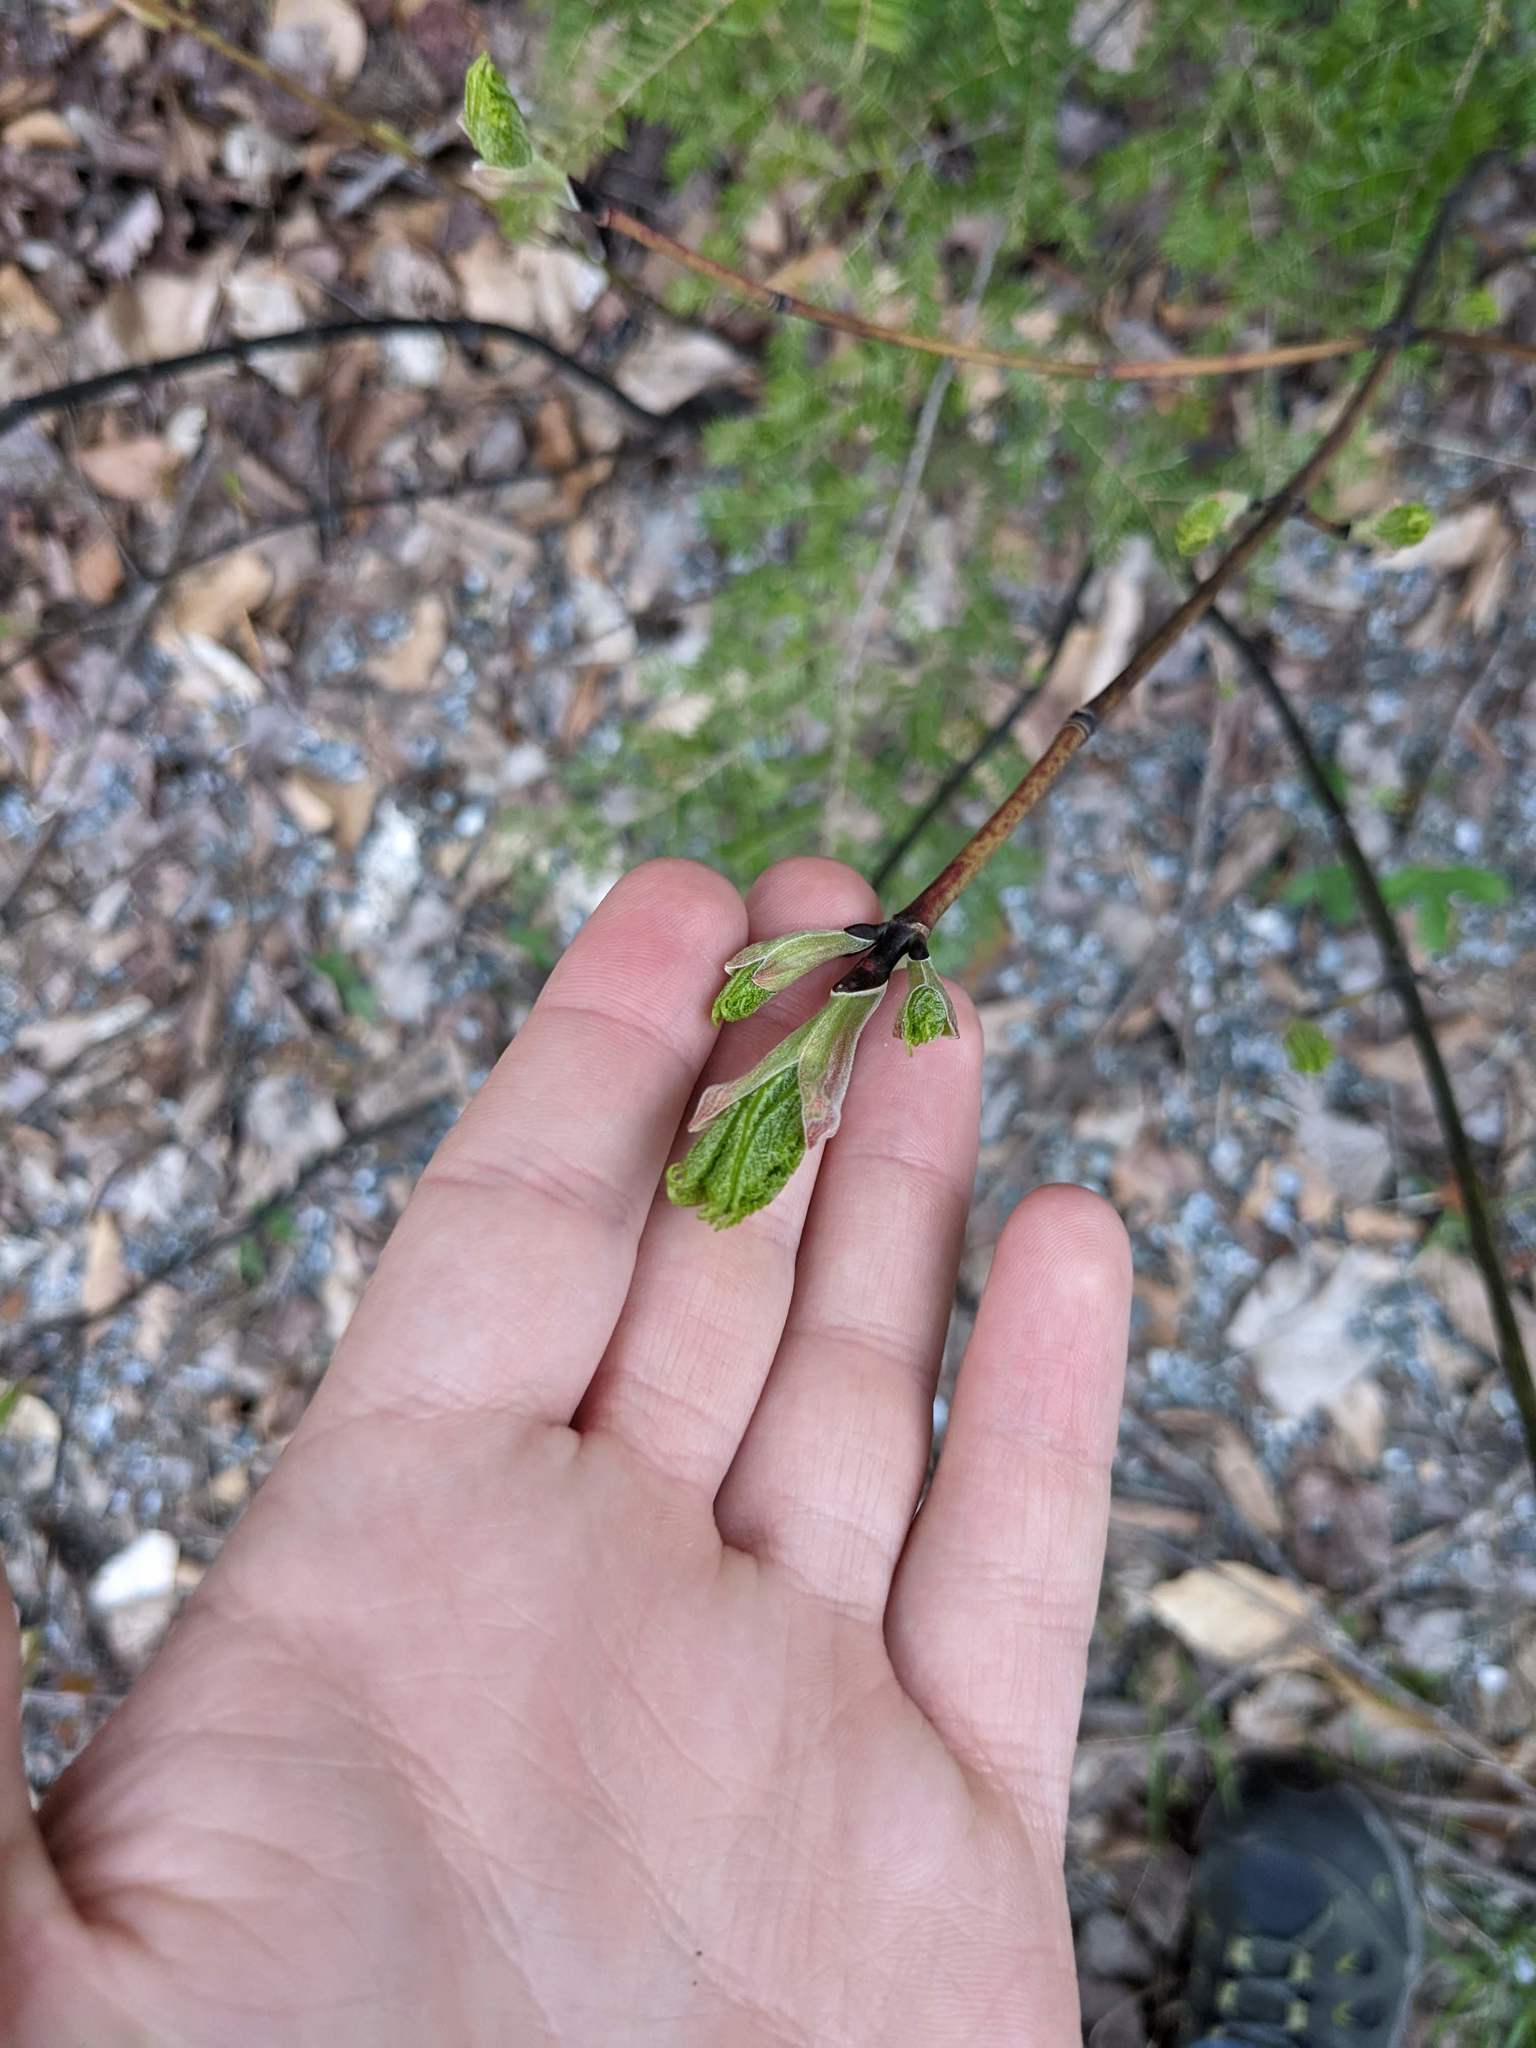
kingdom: Plantae
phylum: Tracheophyta
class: Magnoliopsida
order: Sapindales
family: Sapindaceae
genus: Acer
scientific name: Acer pensylvanicum
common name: Moosewood
